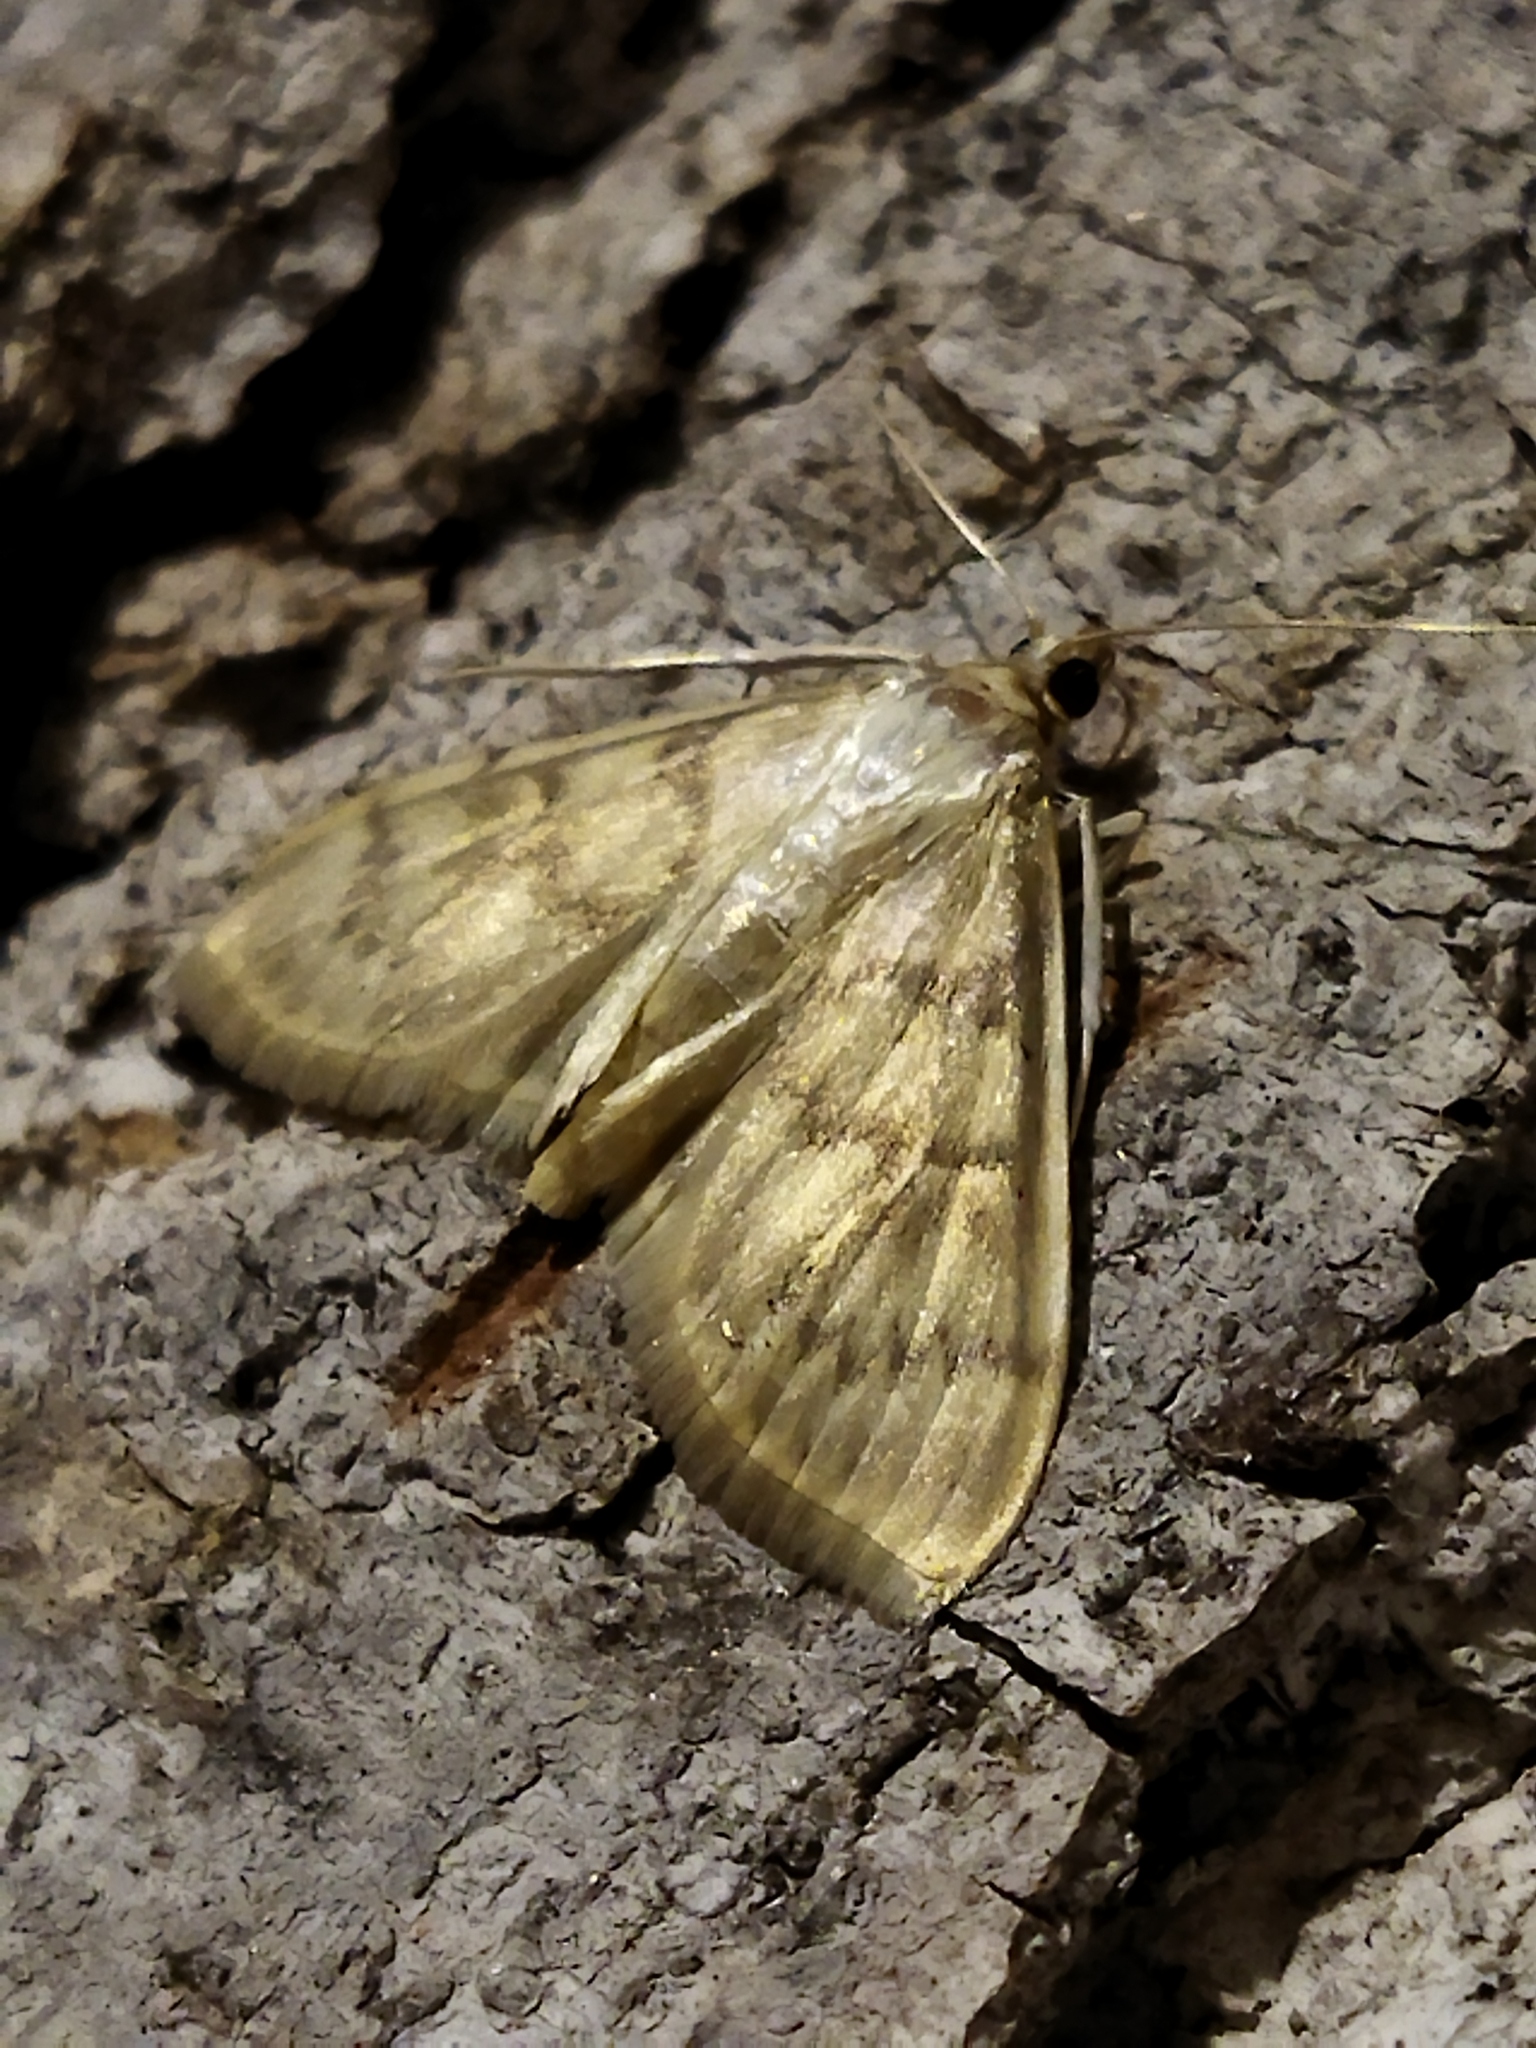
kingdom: Animalia
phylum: Arthropoda
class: Insecta
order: Lepidoptera
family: Crambidae
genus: Patania
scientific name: Patania ruralis
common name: Mother of pearl
